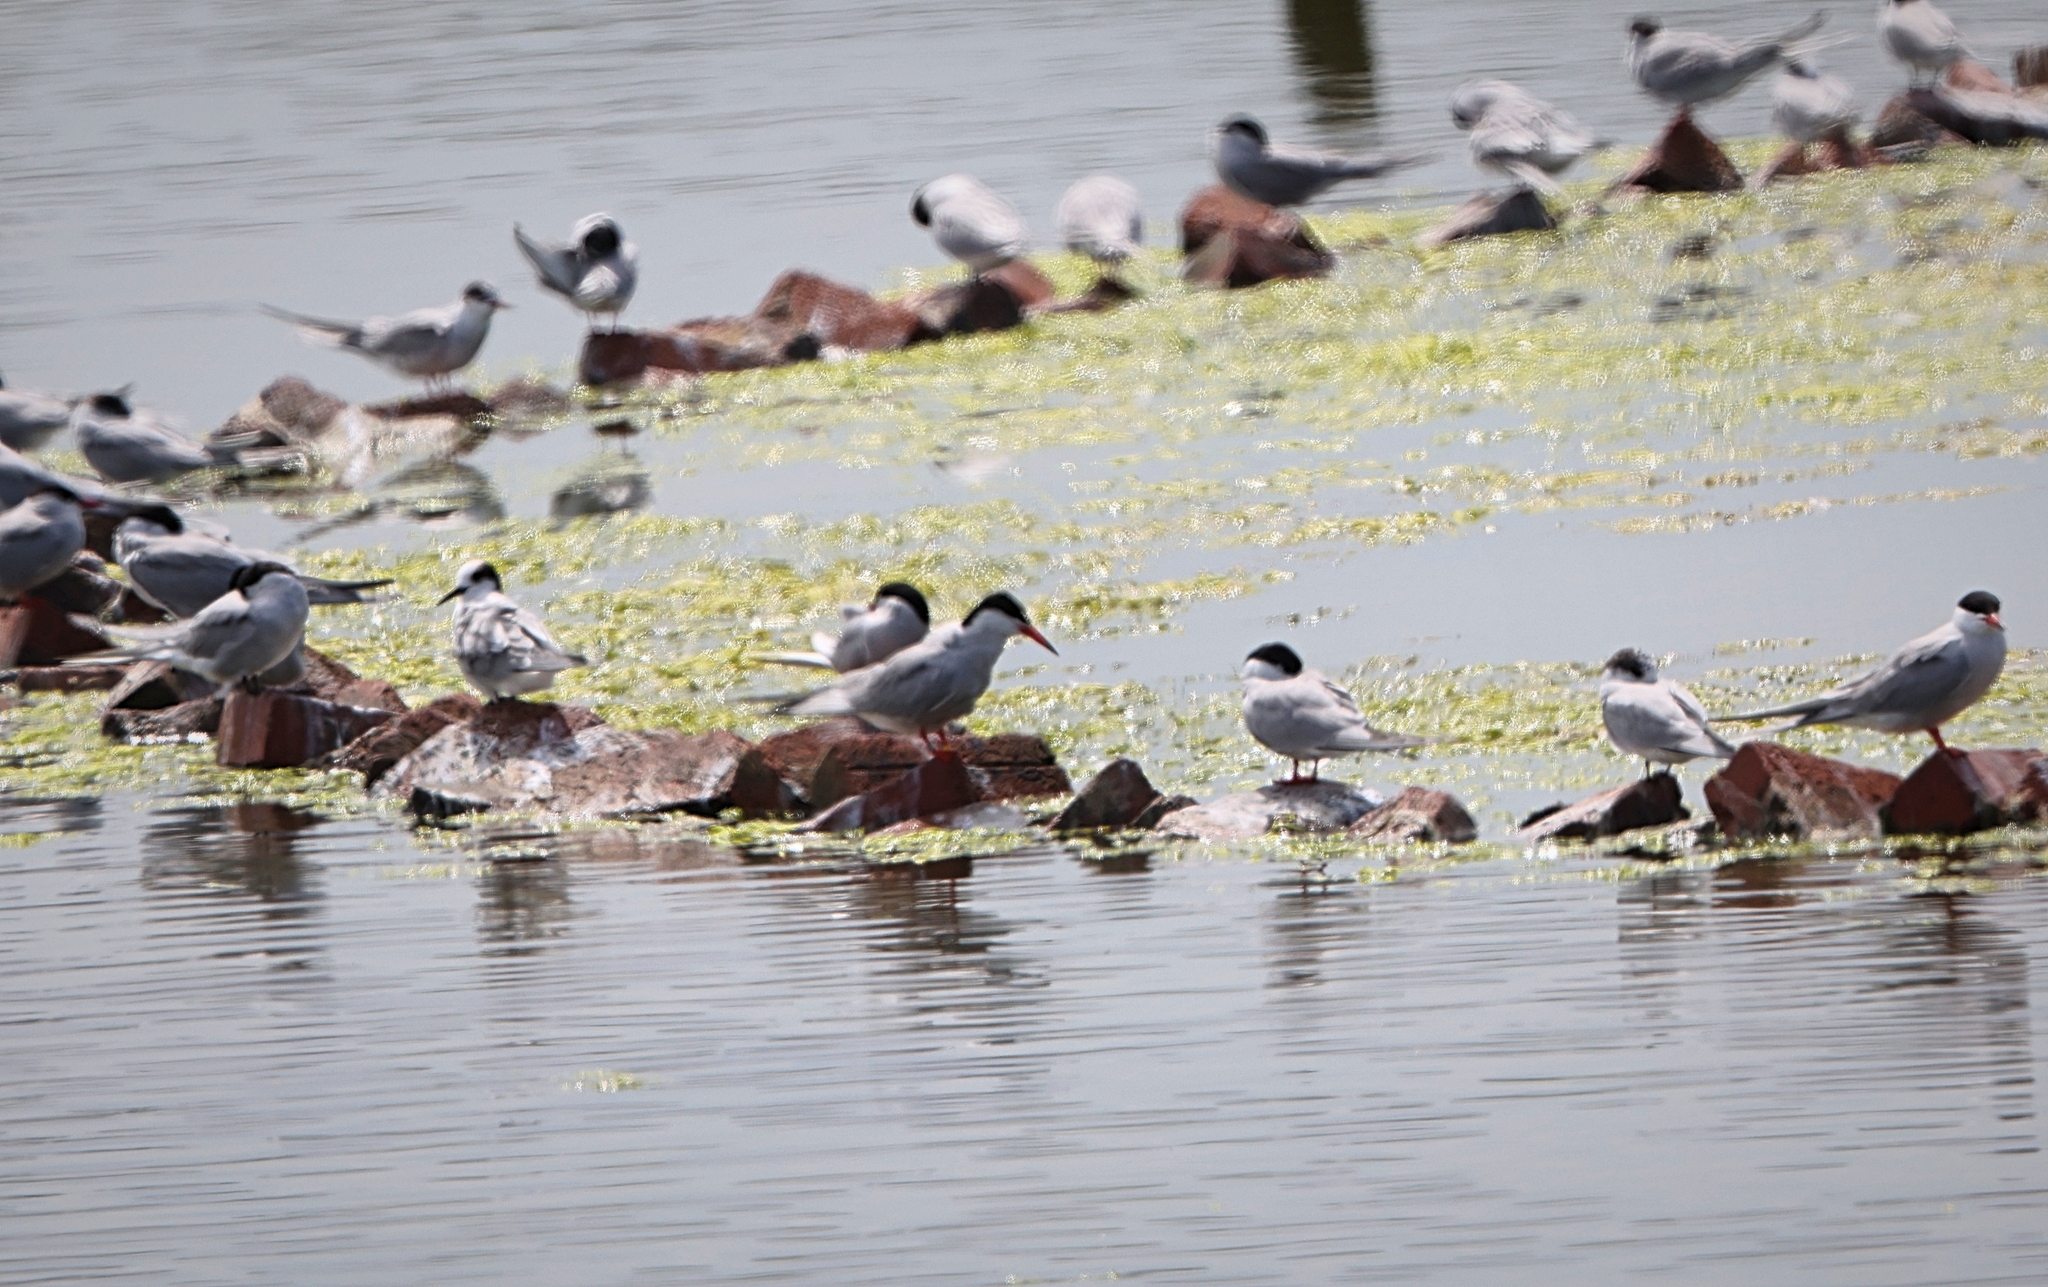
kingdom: Animalia
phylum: Chordata
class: Aves
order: Charadriiformes
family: Laridae
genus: Sterna
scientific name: Sterna hirundo
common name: Common tern
